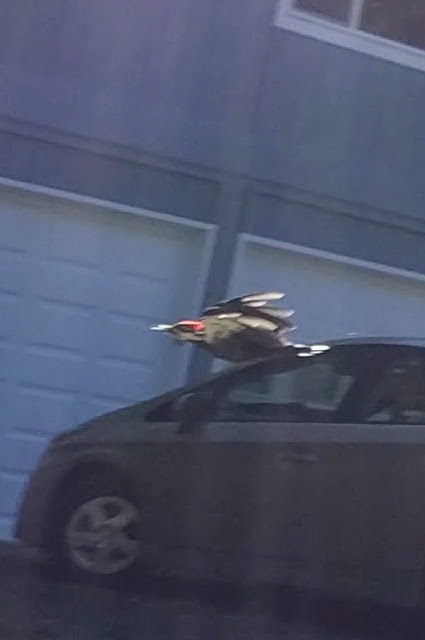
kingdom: Animalia
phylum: Chordata
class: Aves
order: Piciformes
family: Picidae
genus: Dryocopus
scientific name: Dryocopus pileatus
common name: Pileated woodpecker
